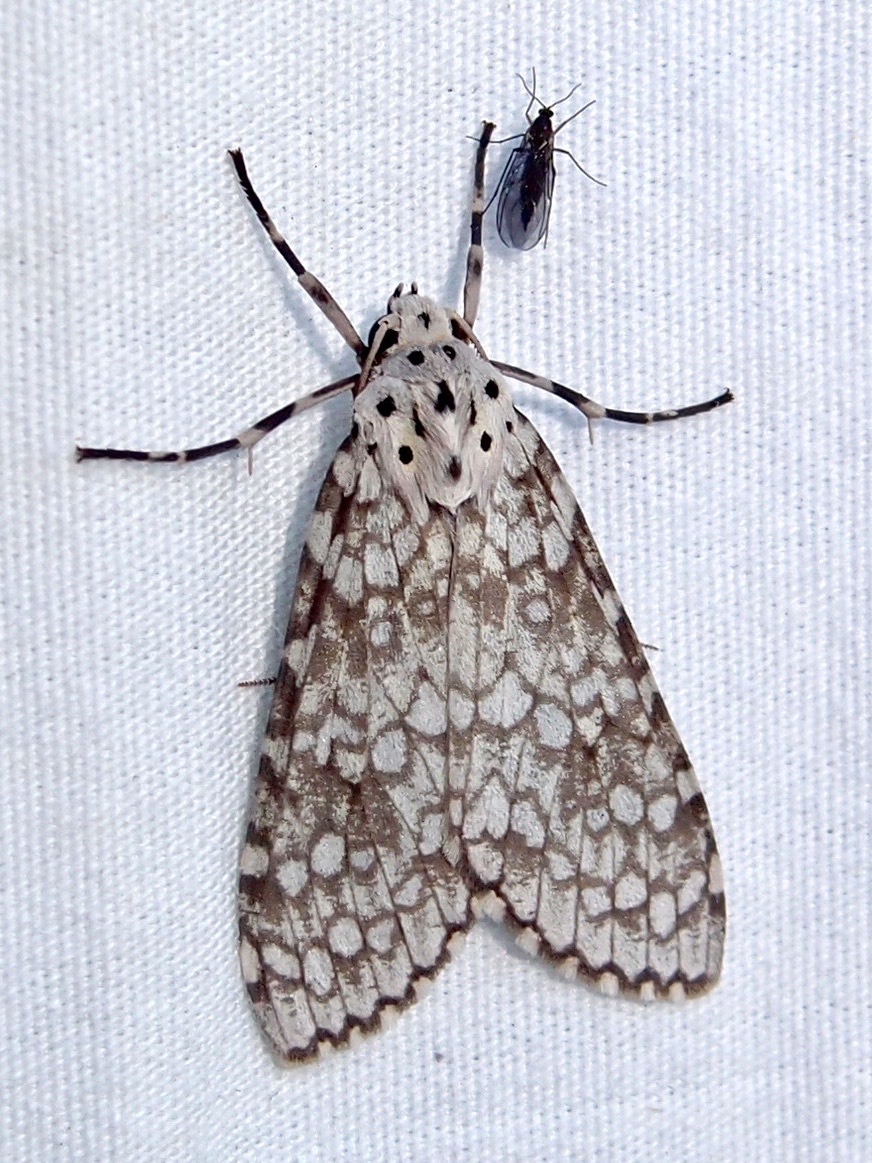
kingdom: Animalia
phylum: Arthropoda
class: Insecta
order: Lepidoptera
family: Erebidae
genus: Carales
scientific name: Carales arizonensis
